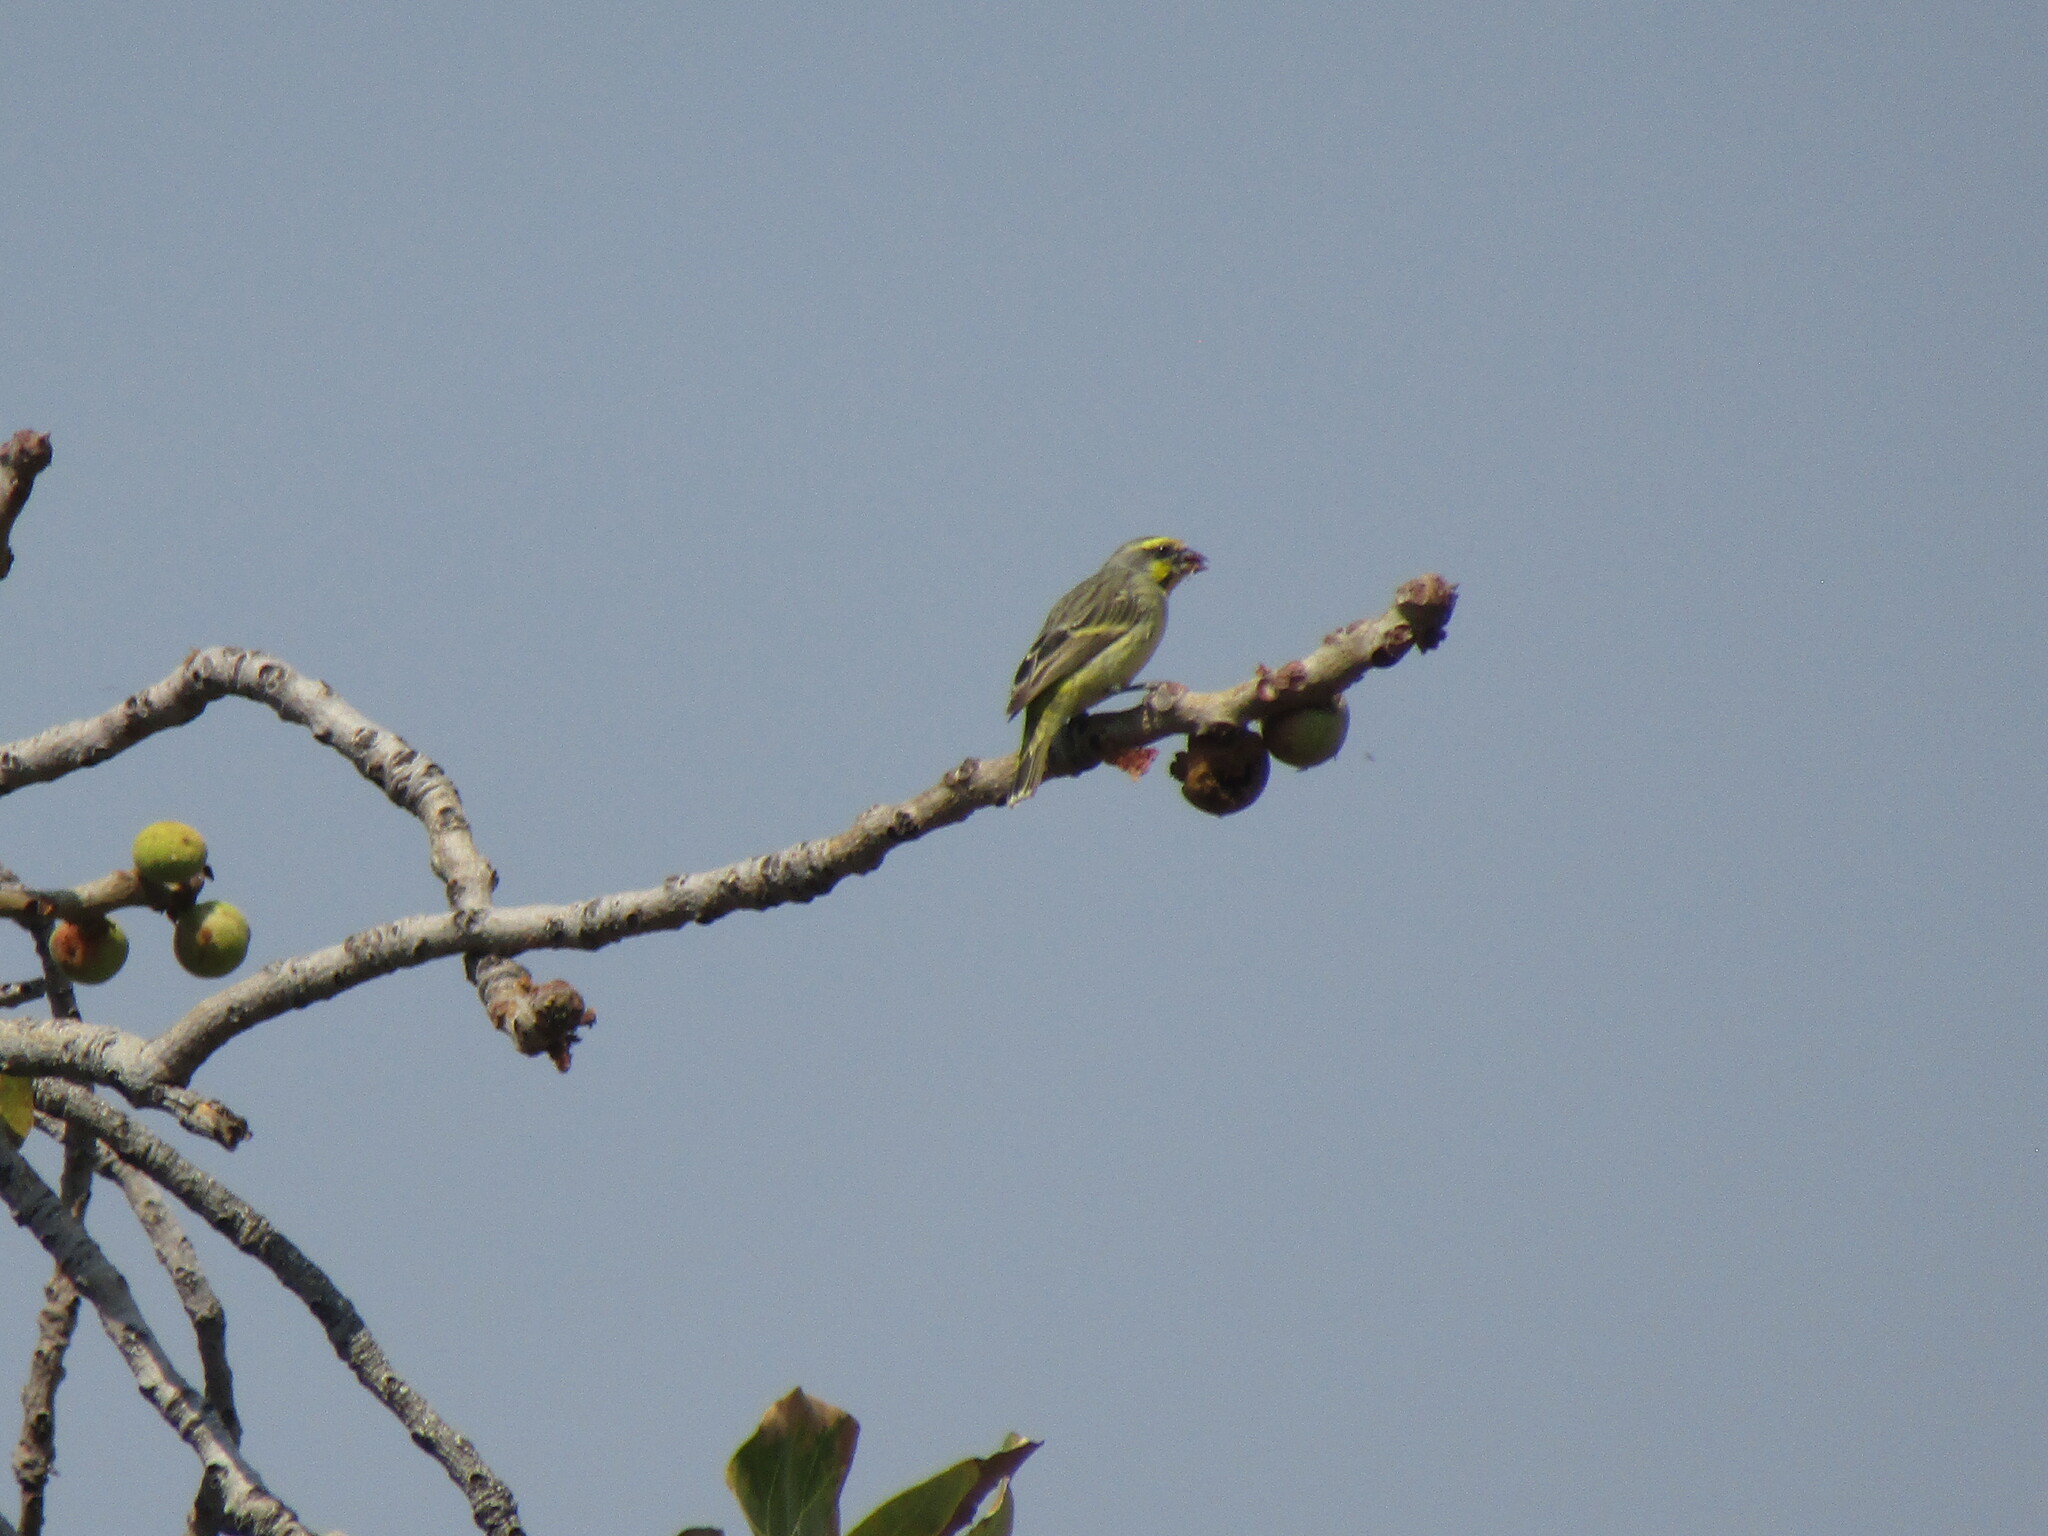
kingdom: Animalia
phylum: Chordata
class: Aves
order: Passeriformes
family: Fringillidae
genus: Crithagra
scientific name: Crithagra mozambica
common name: Yellow-fronted canary
